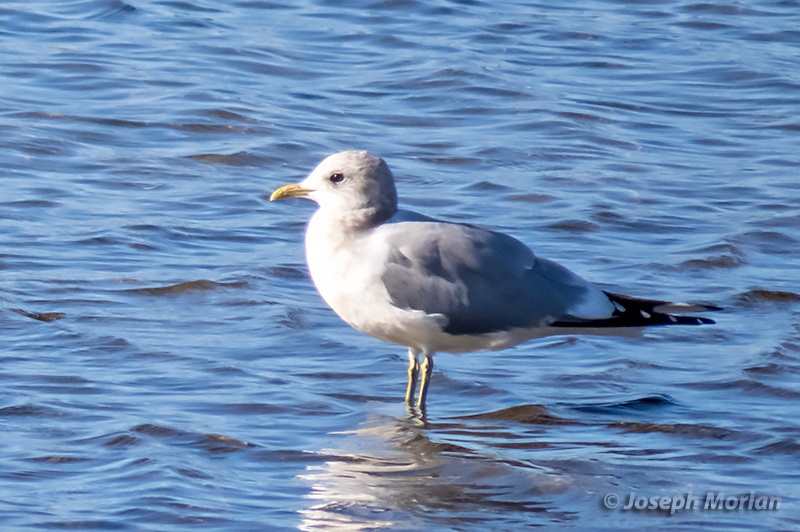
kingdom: Animalia
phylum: Chordata
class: Aves
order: Charadriiformes
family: Laridae
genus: Larus
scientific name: Larus brachyrhynchus
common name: Short-billed gull
